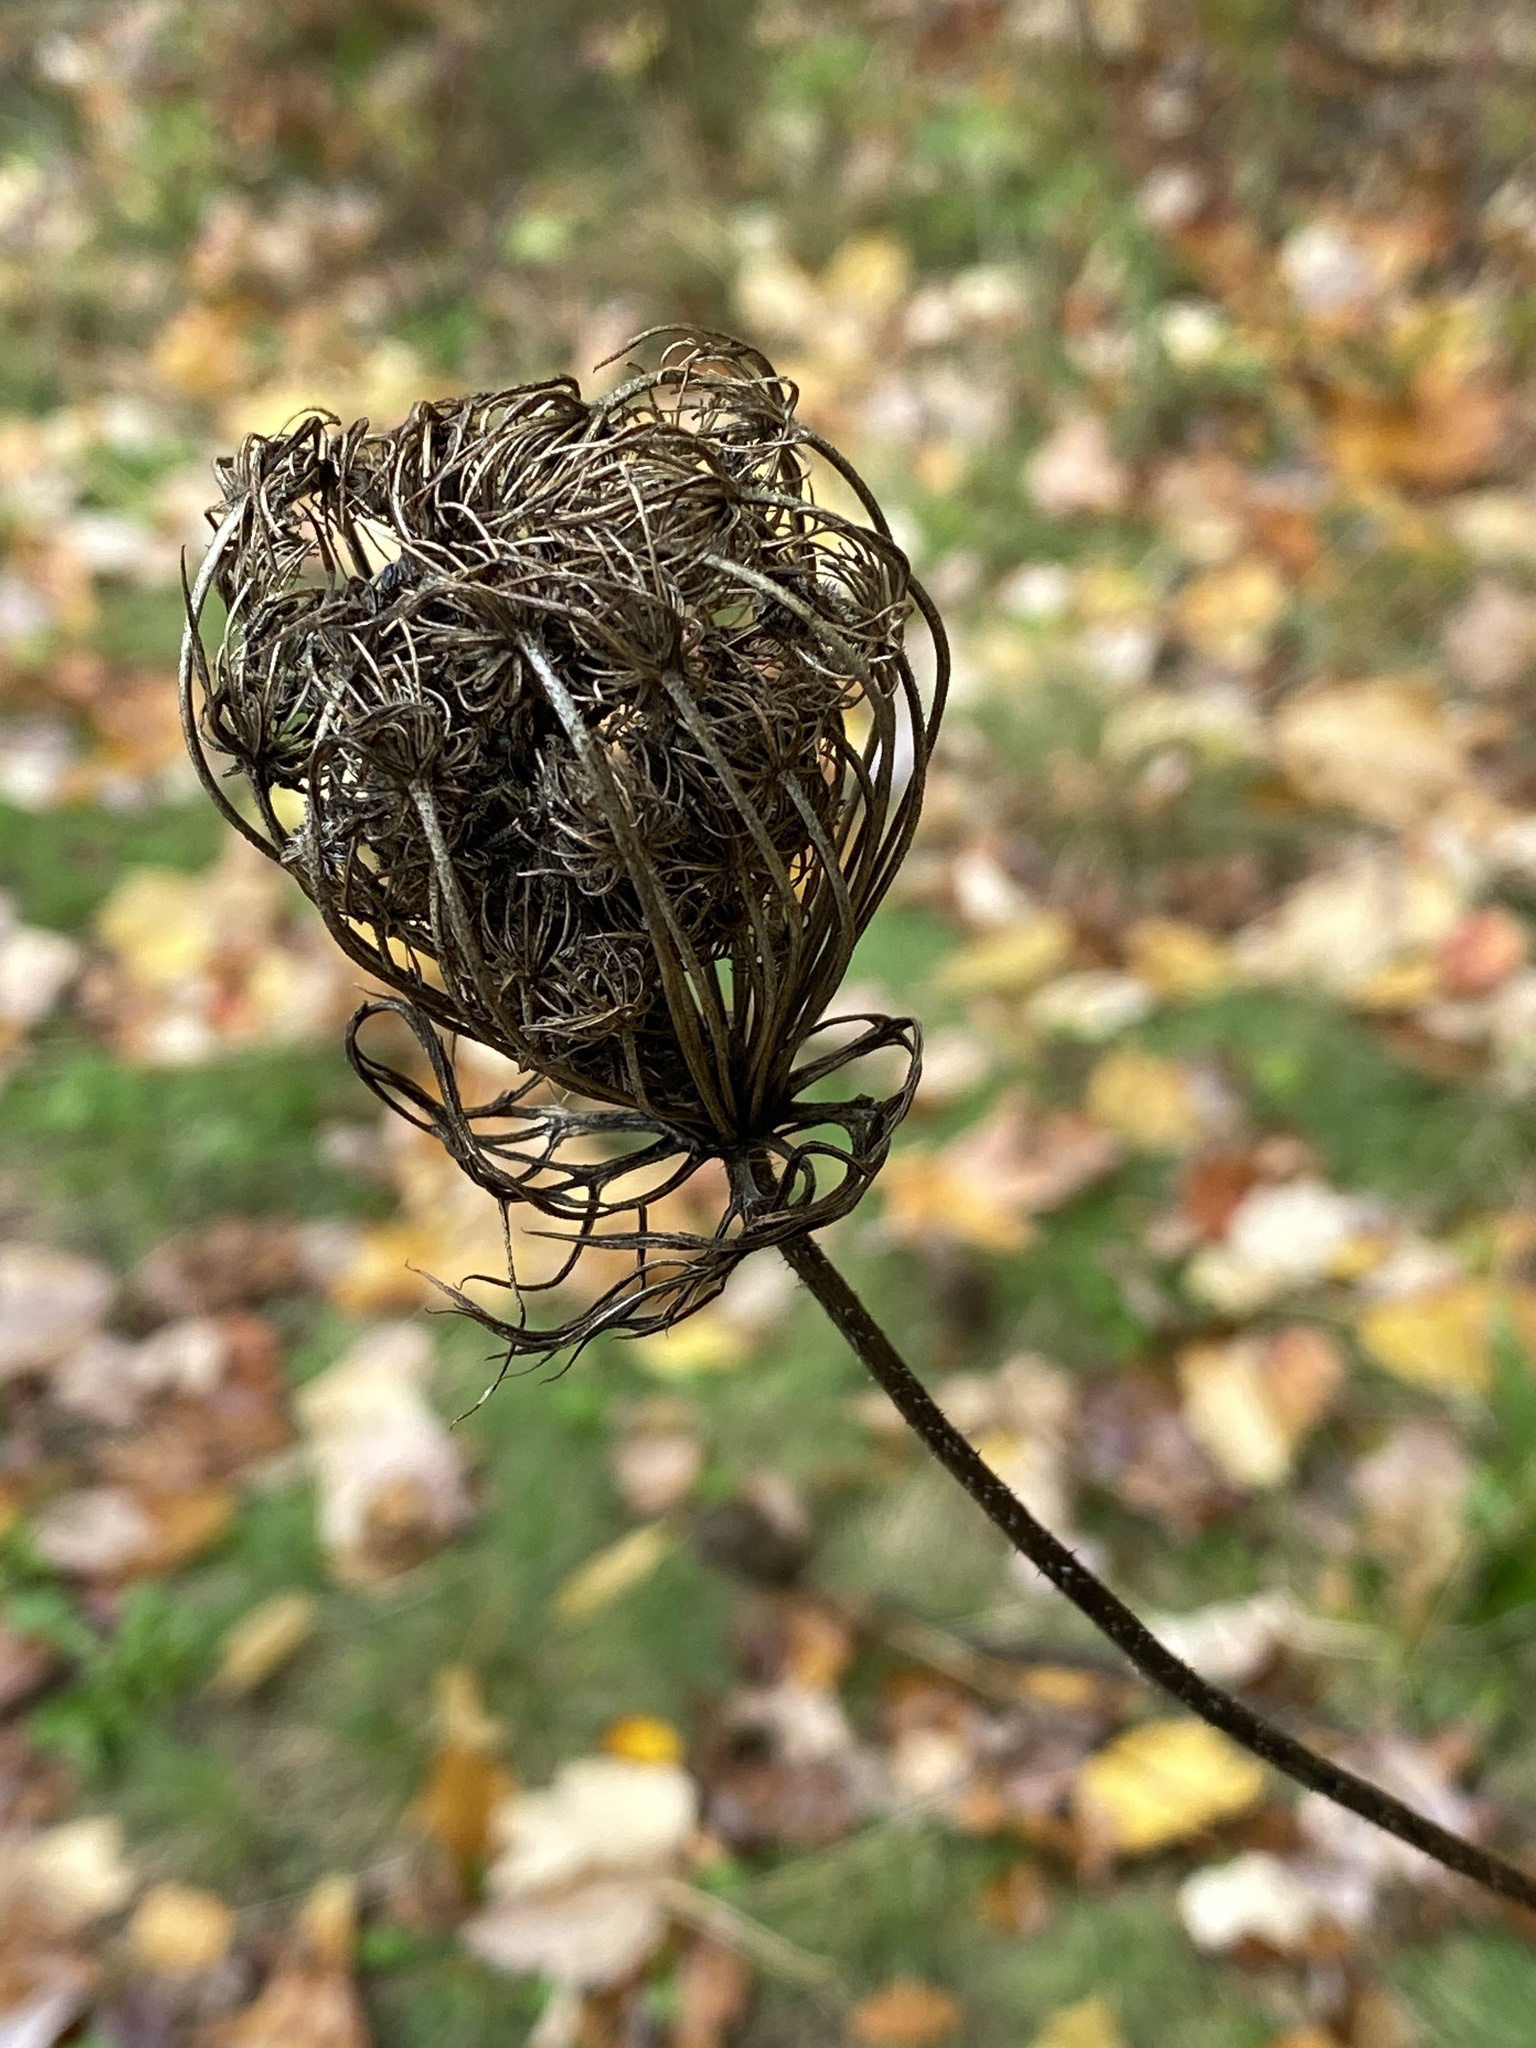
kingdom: Plantae
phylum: Tracheophyta
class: Magnoliopsida
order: Apiales
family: Apiaceae
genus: Daucus
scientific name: Daucus carota
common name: Wild carrot
